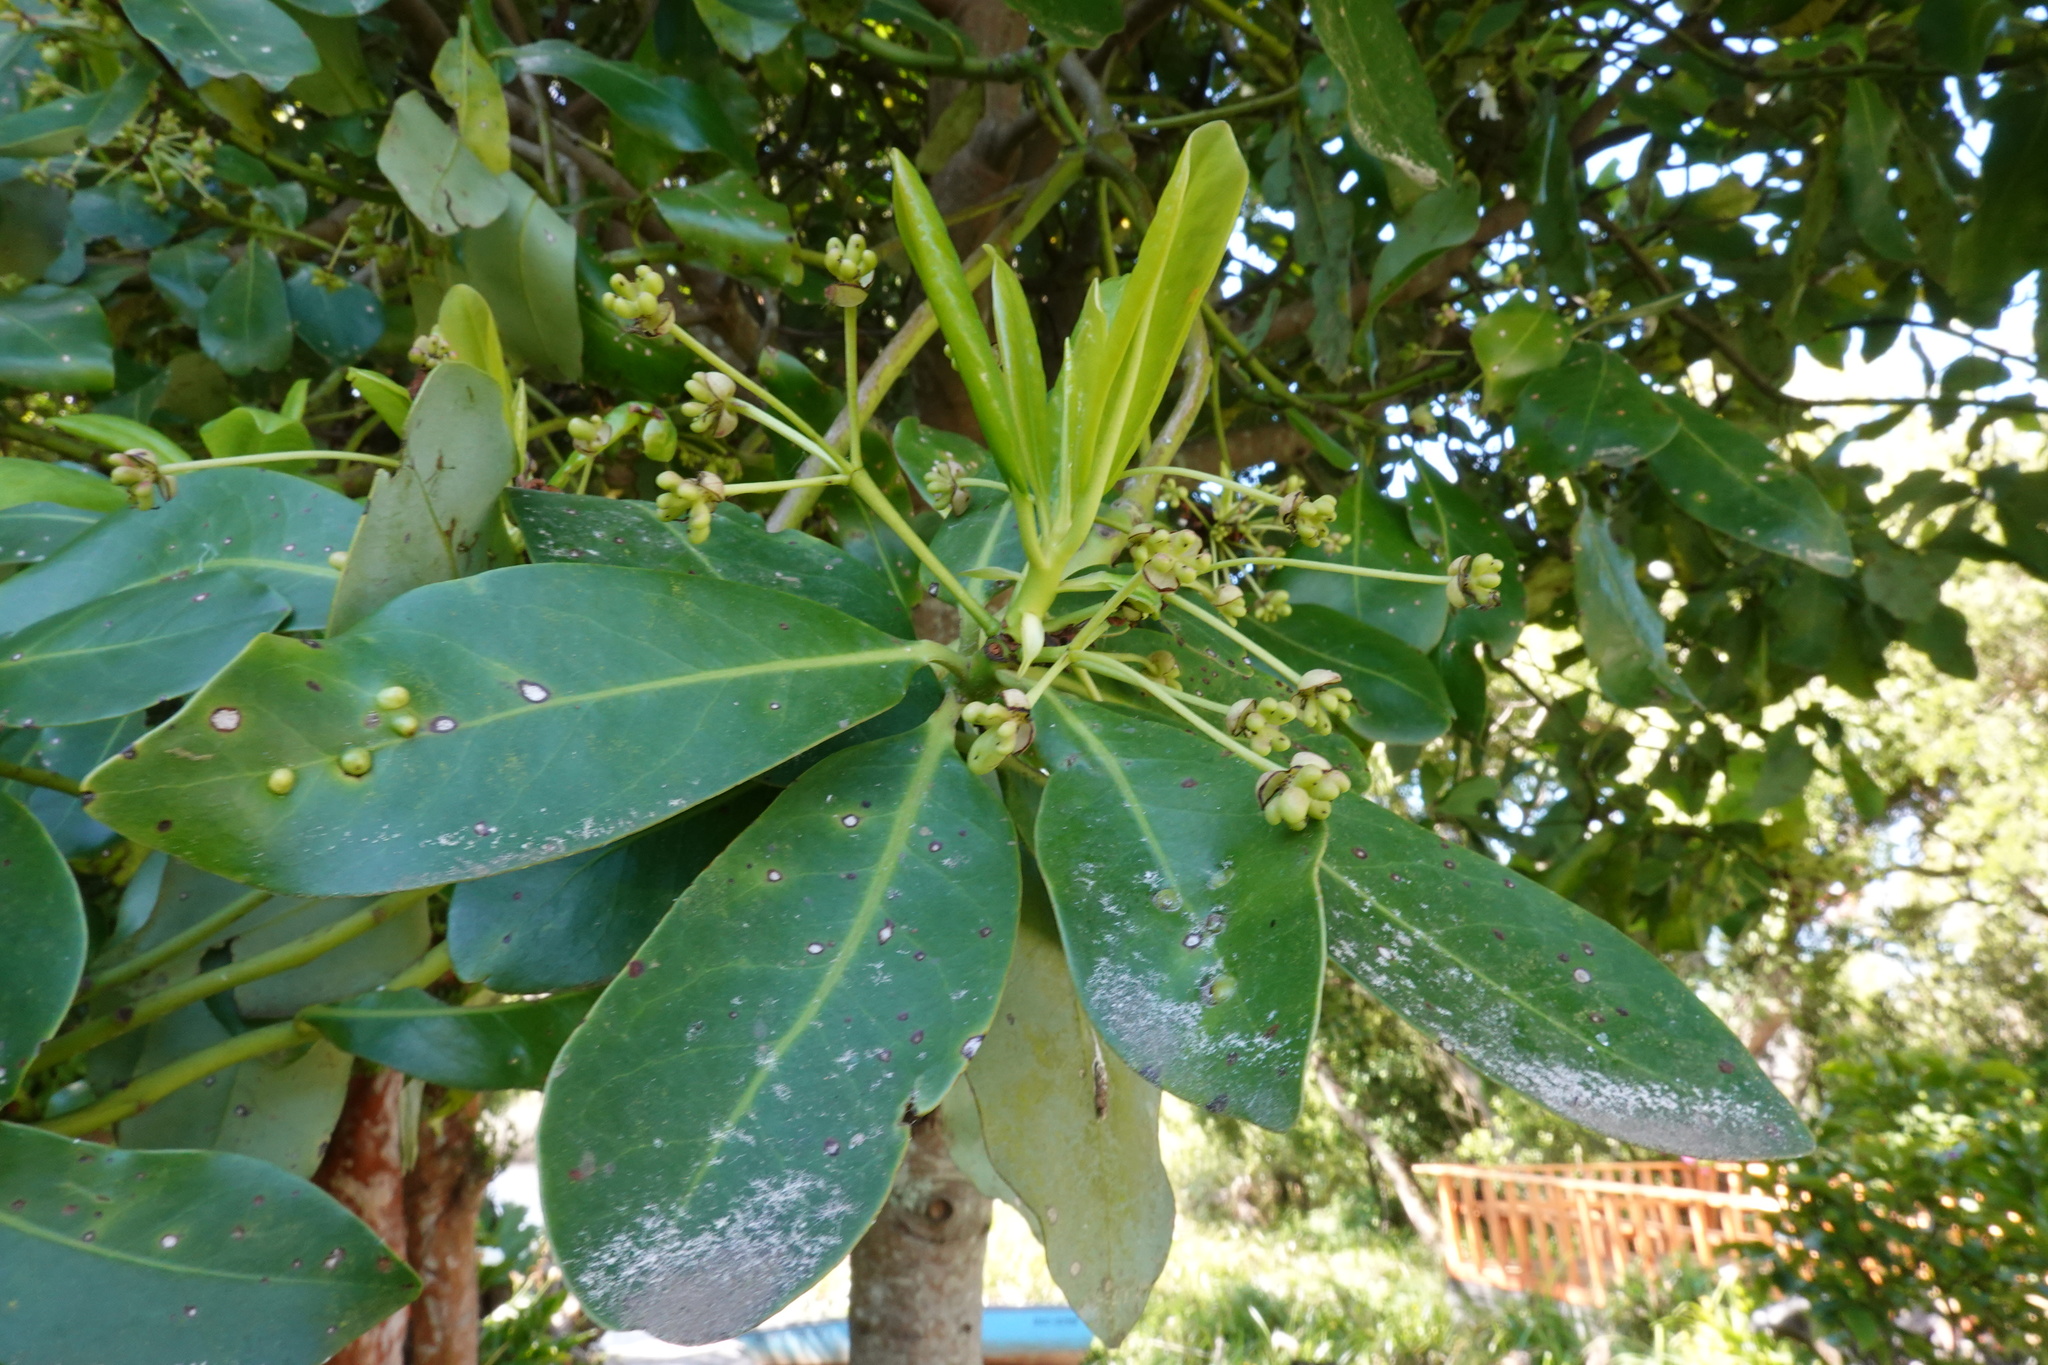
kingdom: Plantae
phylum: Tracheophyta
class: Magnoliopsida
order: Canellales
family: Winteraceae
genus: Drimys
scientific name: Drimys winteri
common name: Winter's-bark
